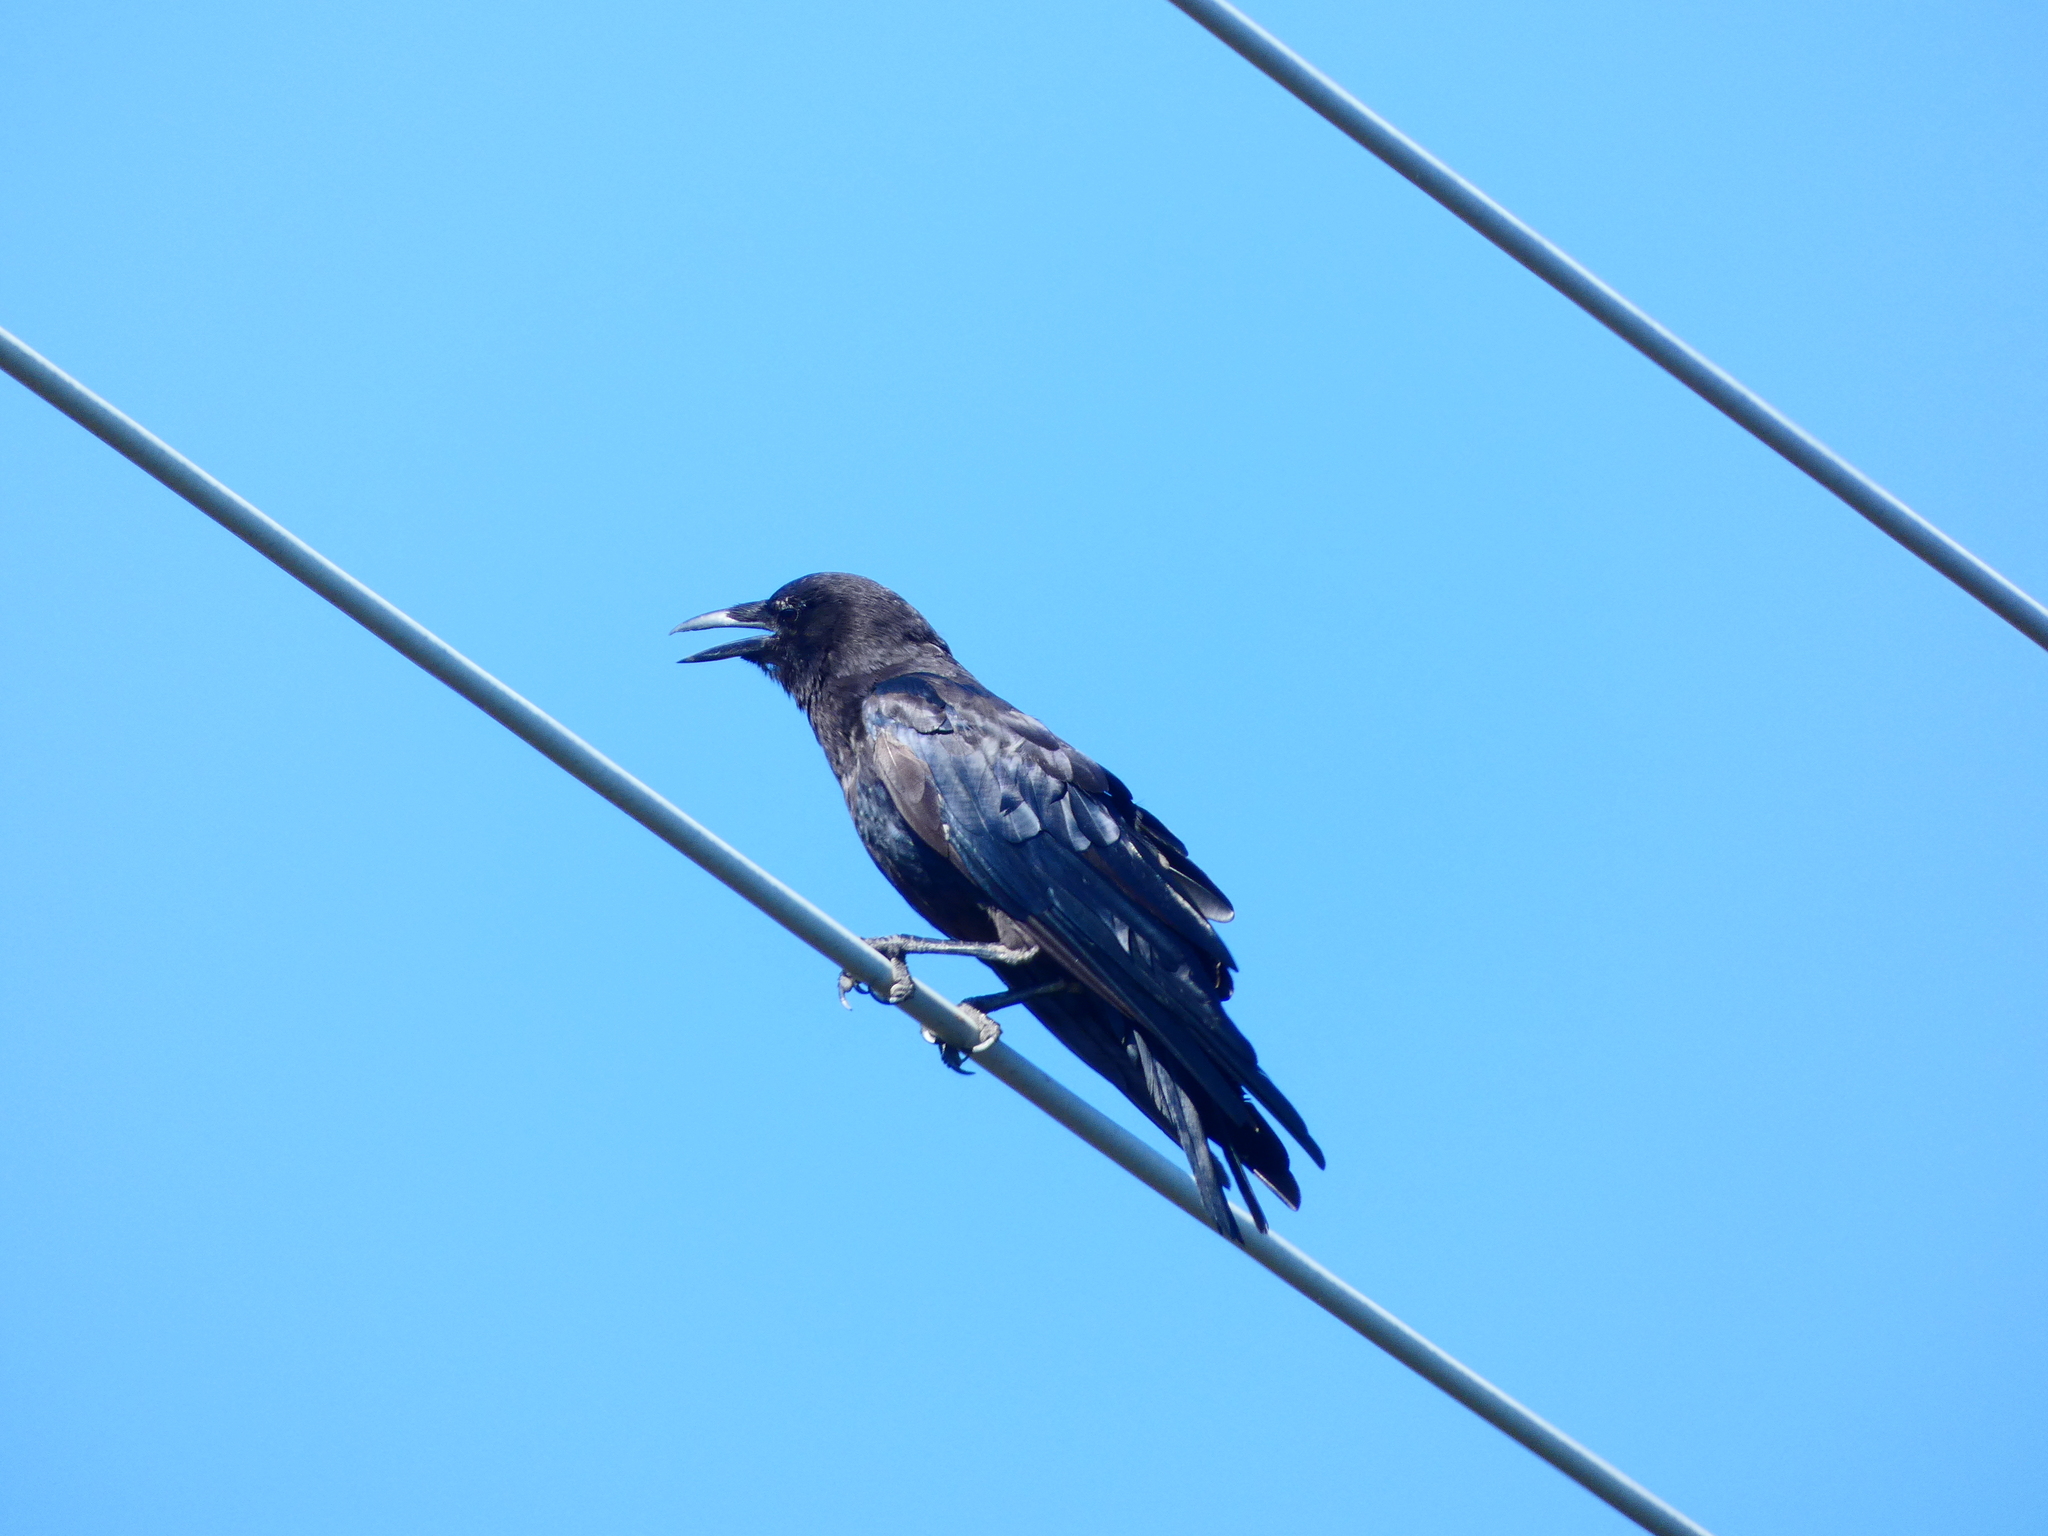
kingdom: Animalia
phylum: Chordata
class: Aves
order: Passeriformes
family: Corvidae
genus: Corvus
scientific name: Corvus brachyrhynchos
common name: American crow
